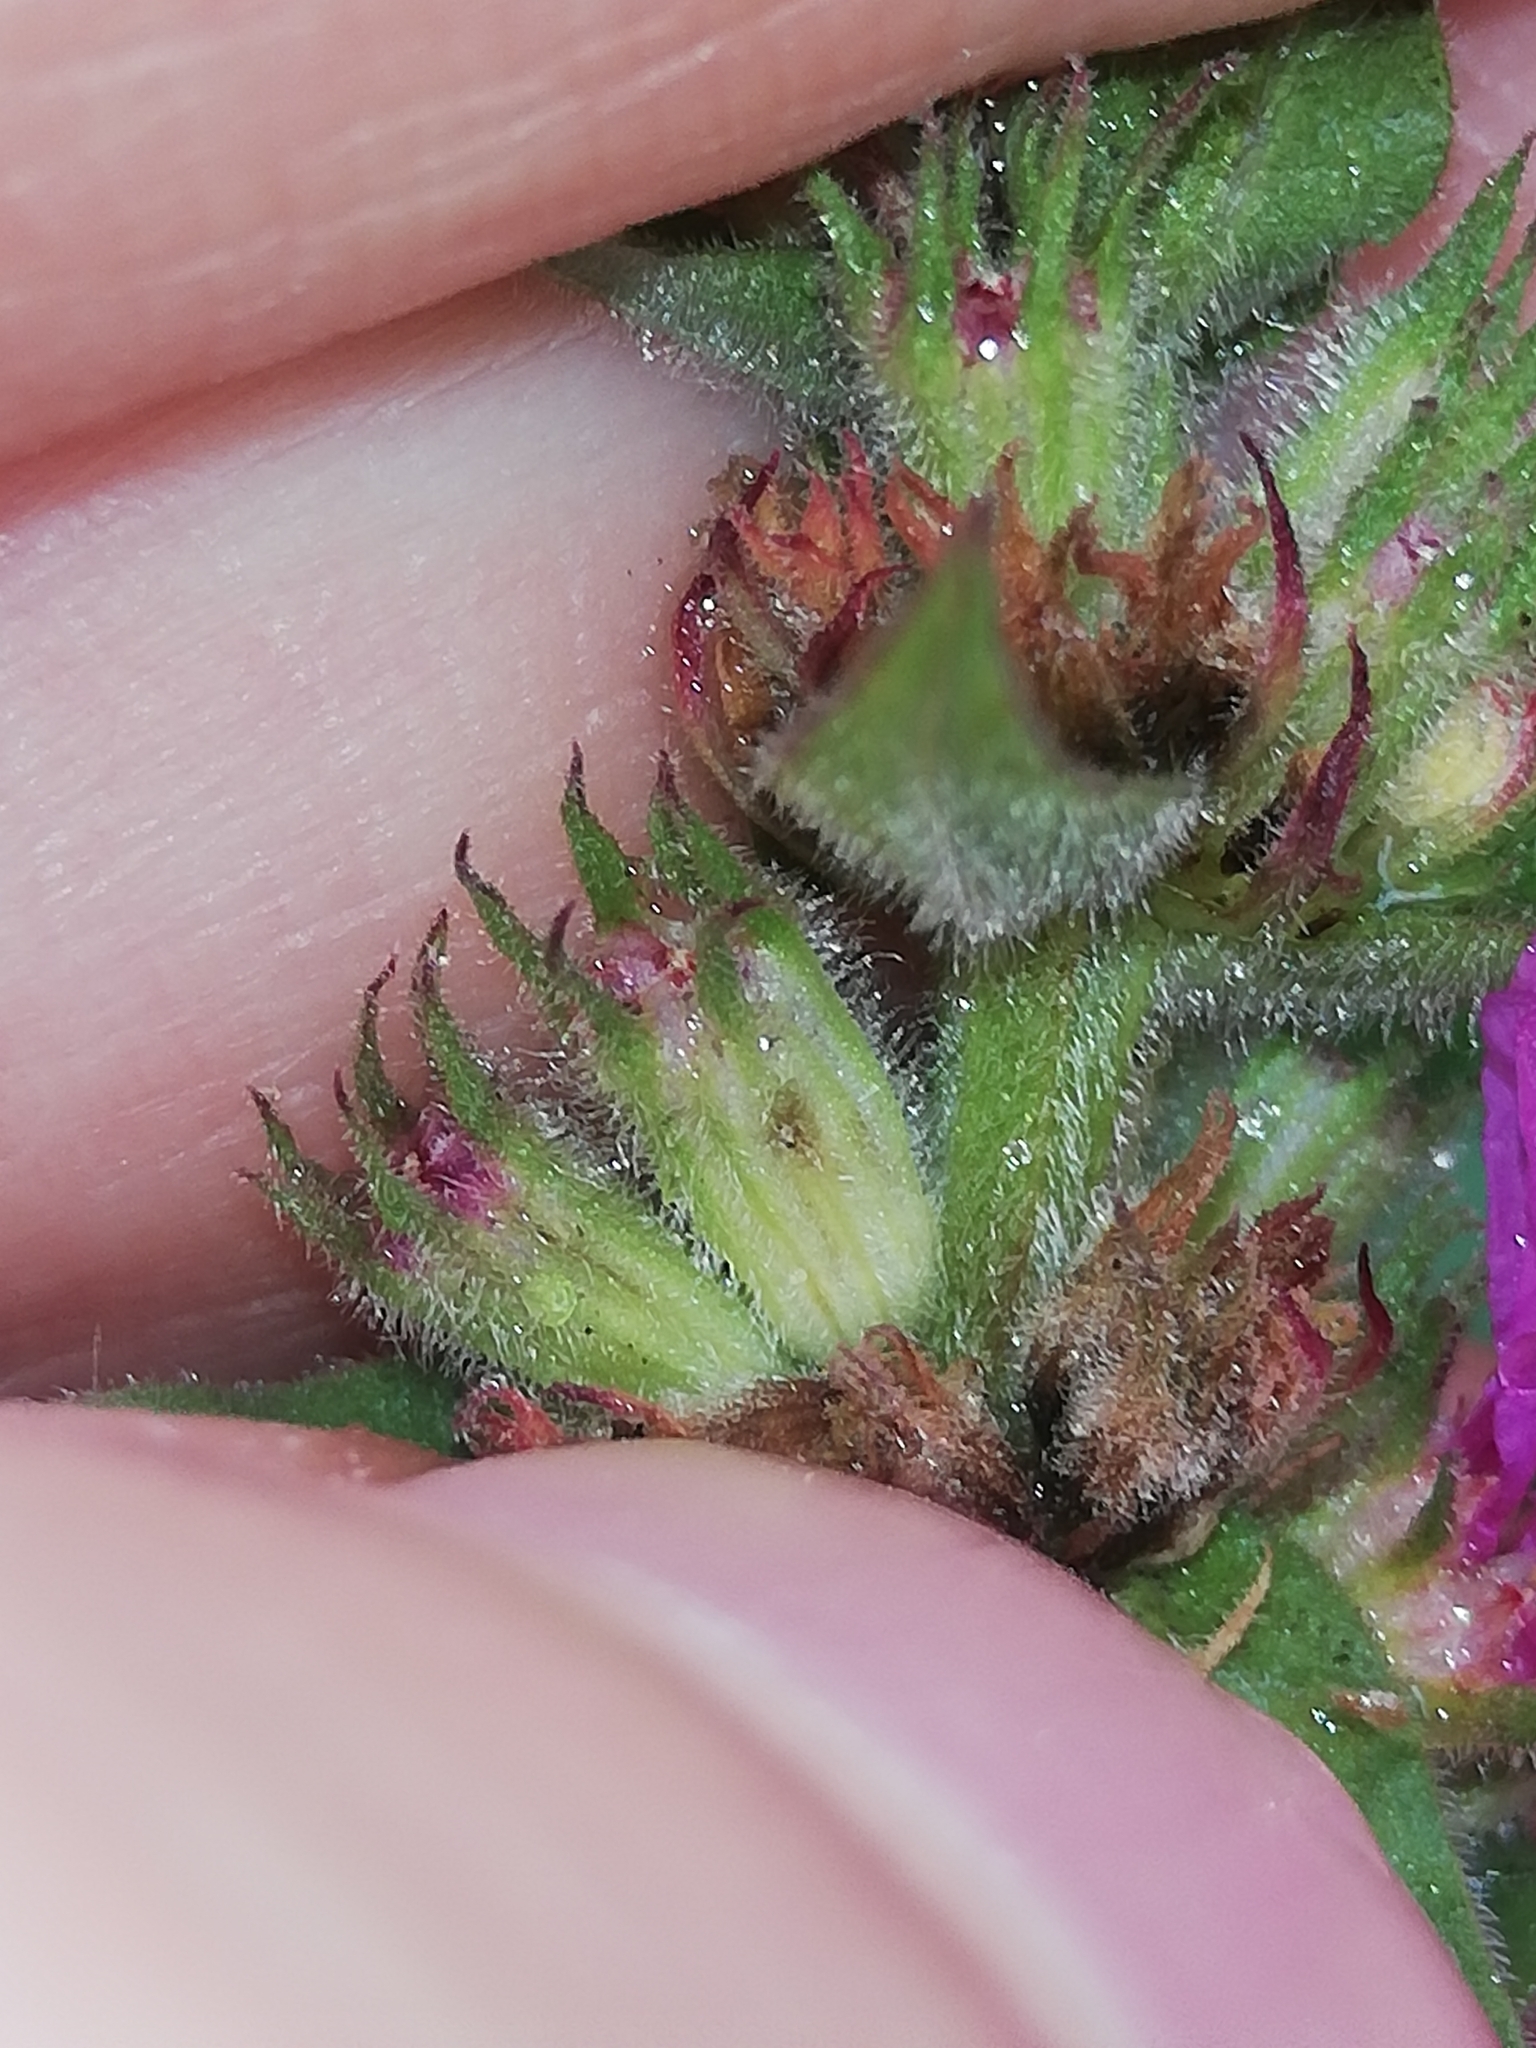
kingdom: Plantae
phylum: Tracheophyta
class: Magnoliopsida
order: Myrtales
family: Lythraceae
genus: Lythrum
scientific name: Lythrum salicaria
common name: Purple loosestrife
